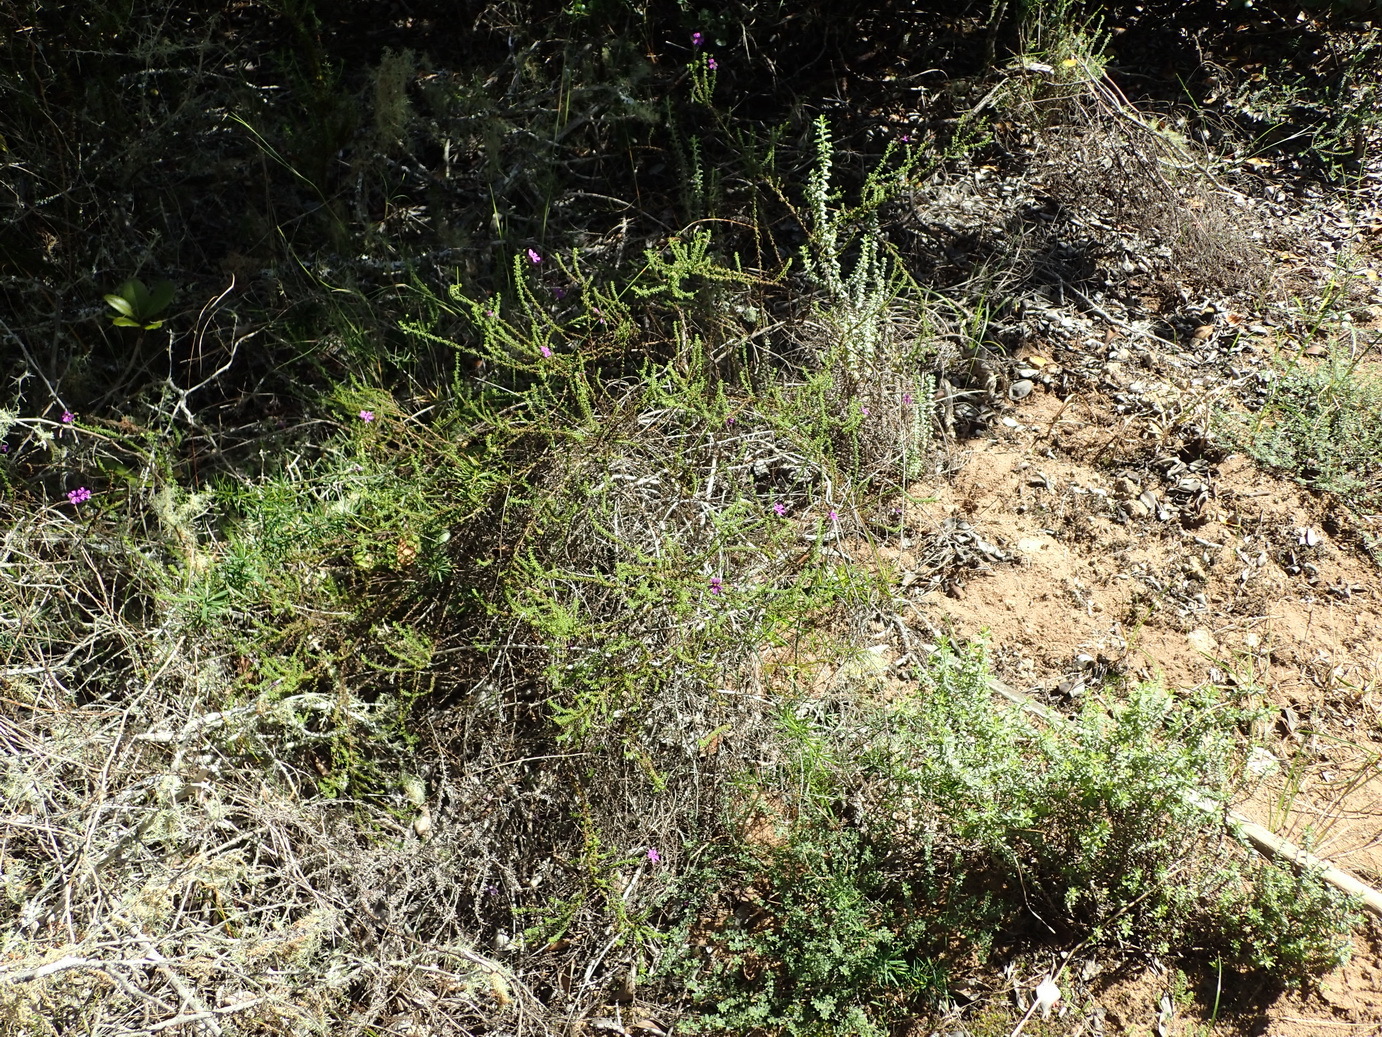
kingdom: Plantae
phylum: Tracheophyta
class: Magnoliopsida
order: Lamiales
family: Scrophulariaceae
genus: Jamesbrittenia
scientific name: Jamesbrittenia tenuifolia
